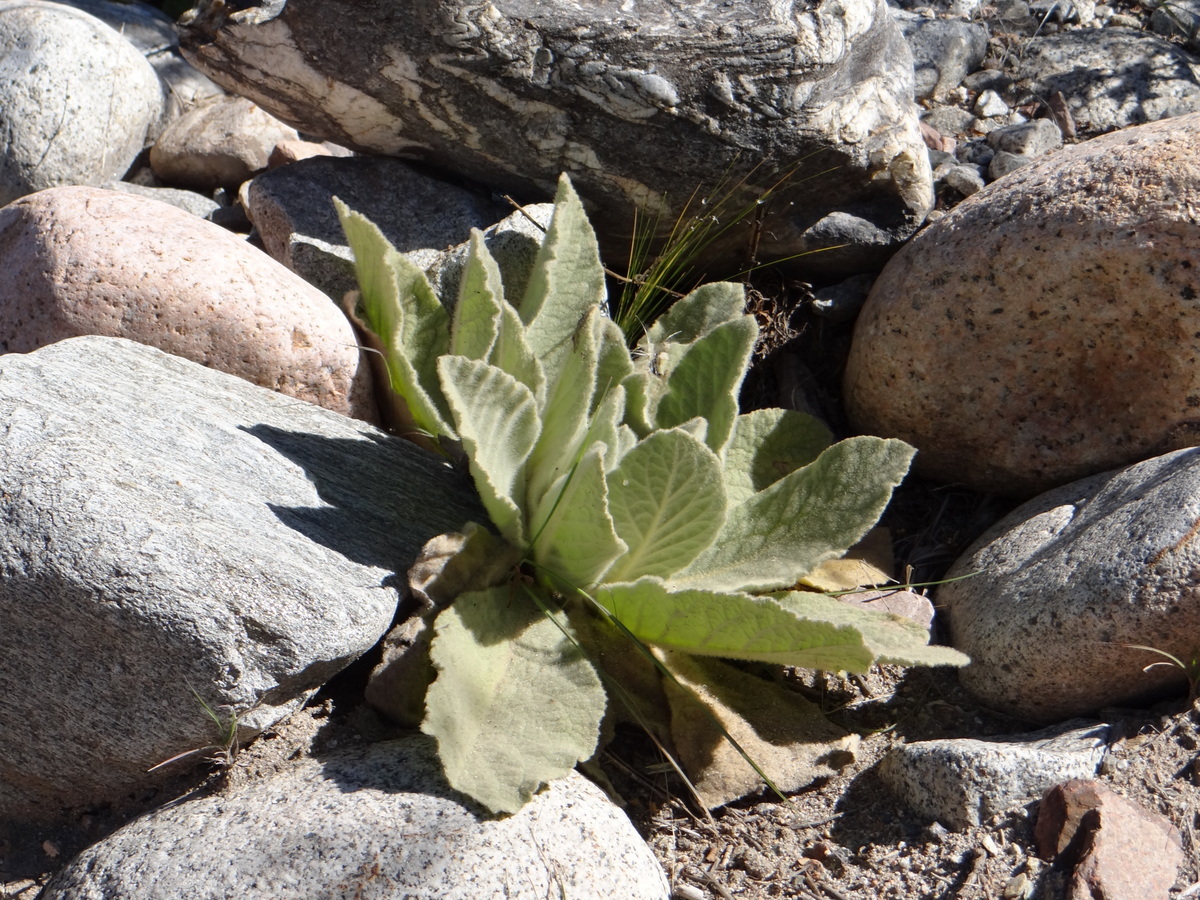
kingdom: Plantae
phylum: Tracheophyta
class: Magnoliopsida
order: Lamiales
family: Scrophulariaceae
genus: Verbascum
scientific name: Verbascum thapsus
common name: Common mullein
